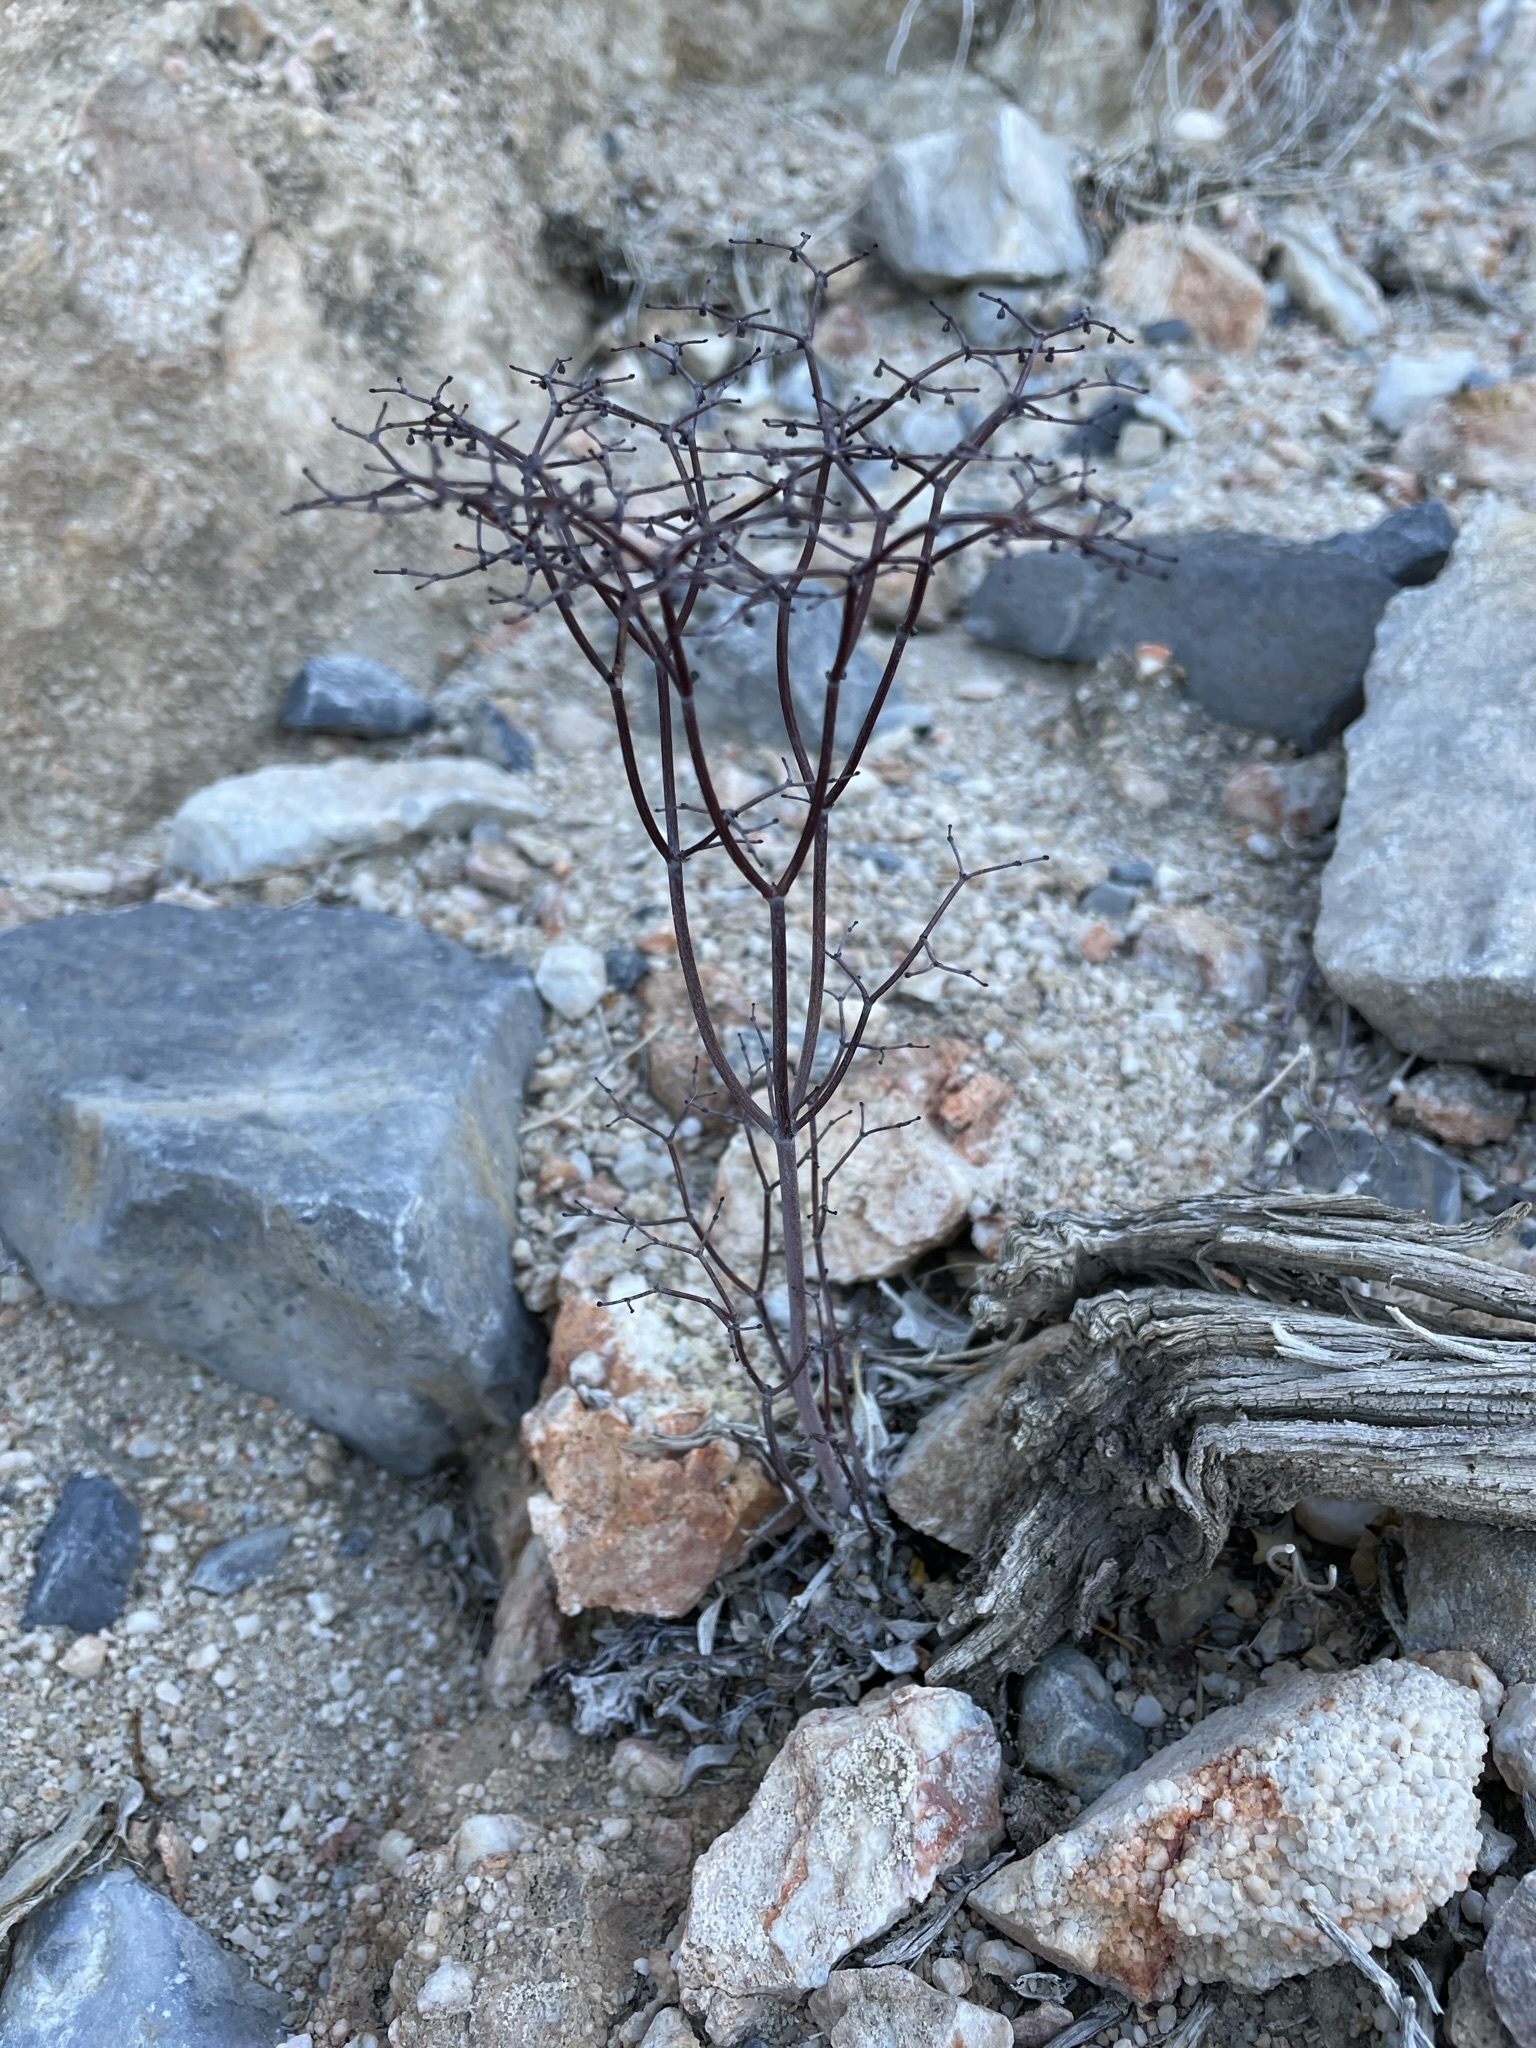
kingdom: Plantae
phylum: Tracheophyta
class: Magnoliopsida
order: Caryophyllales
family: Polygonaceae
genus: Eriogonum
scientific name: Eriogonum rixfordii
